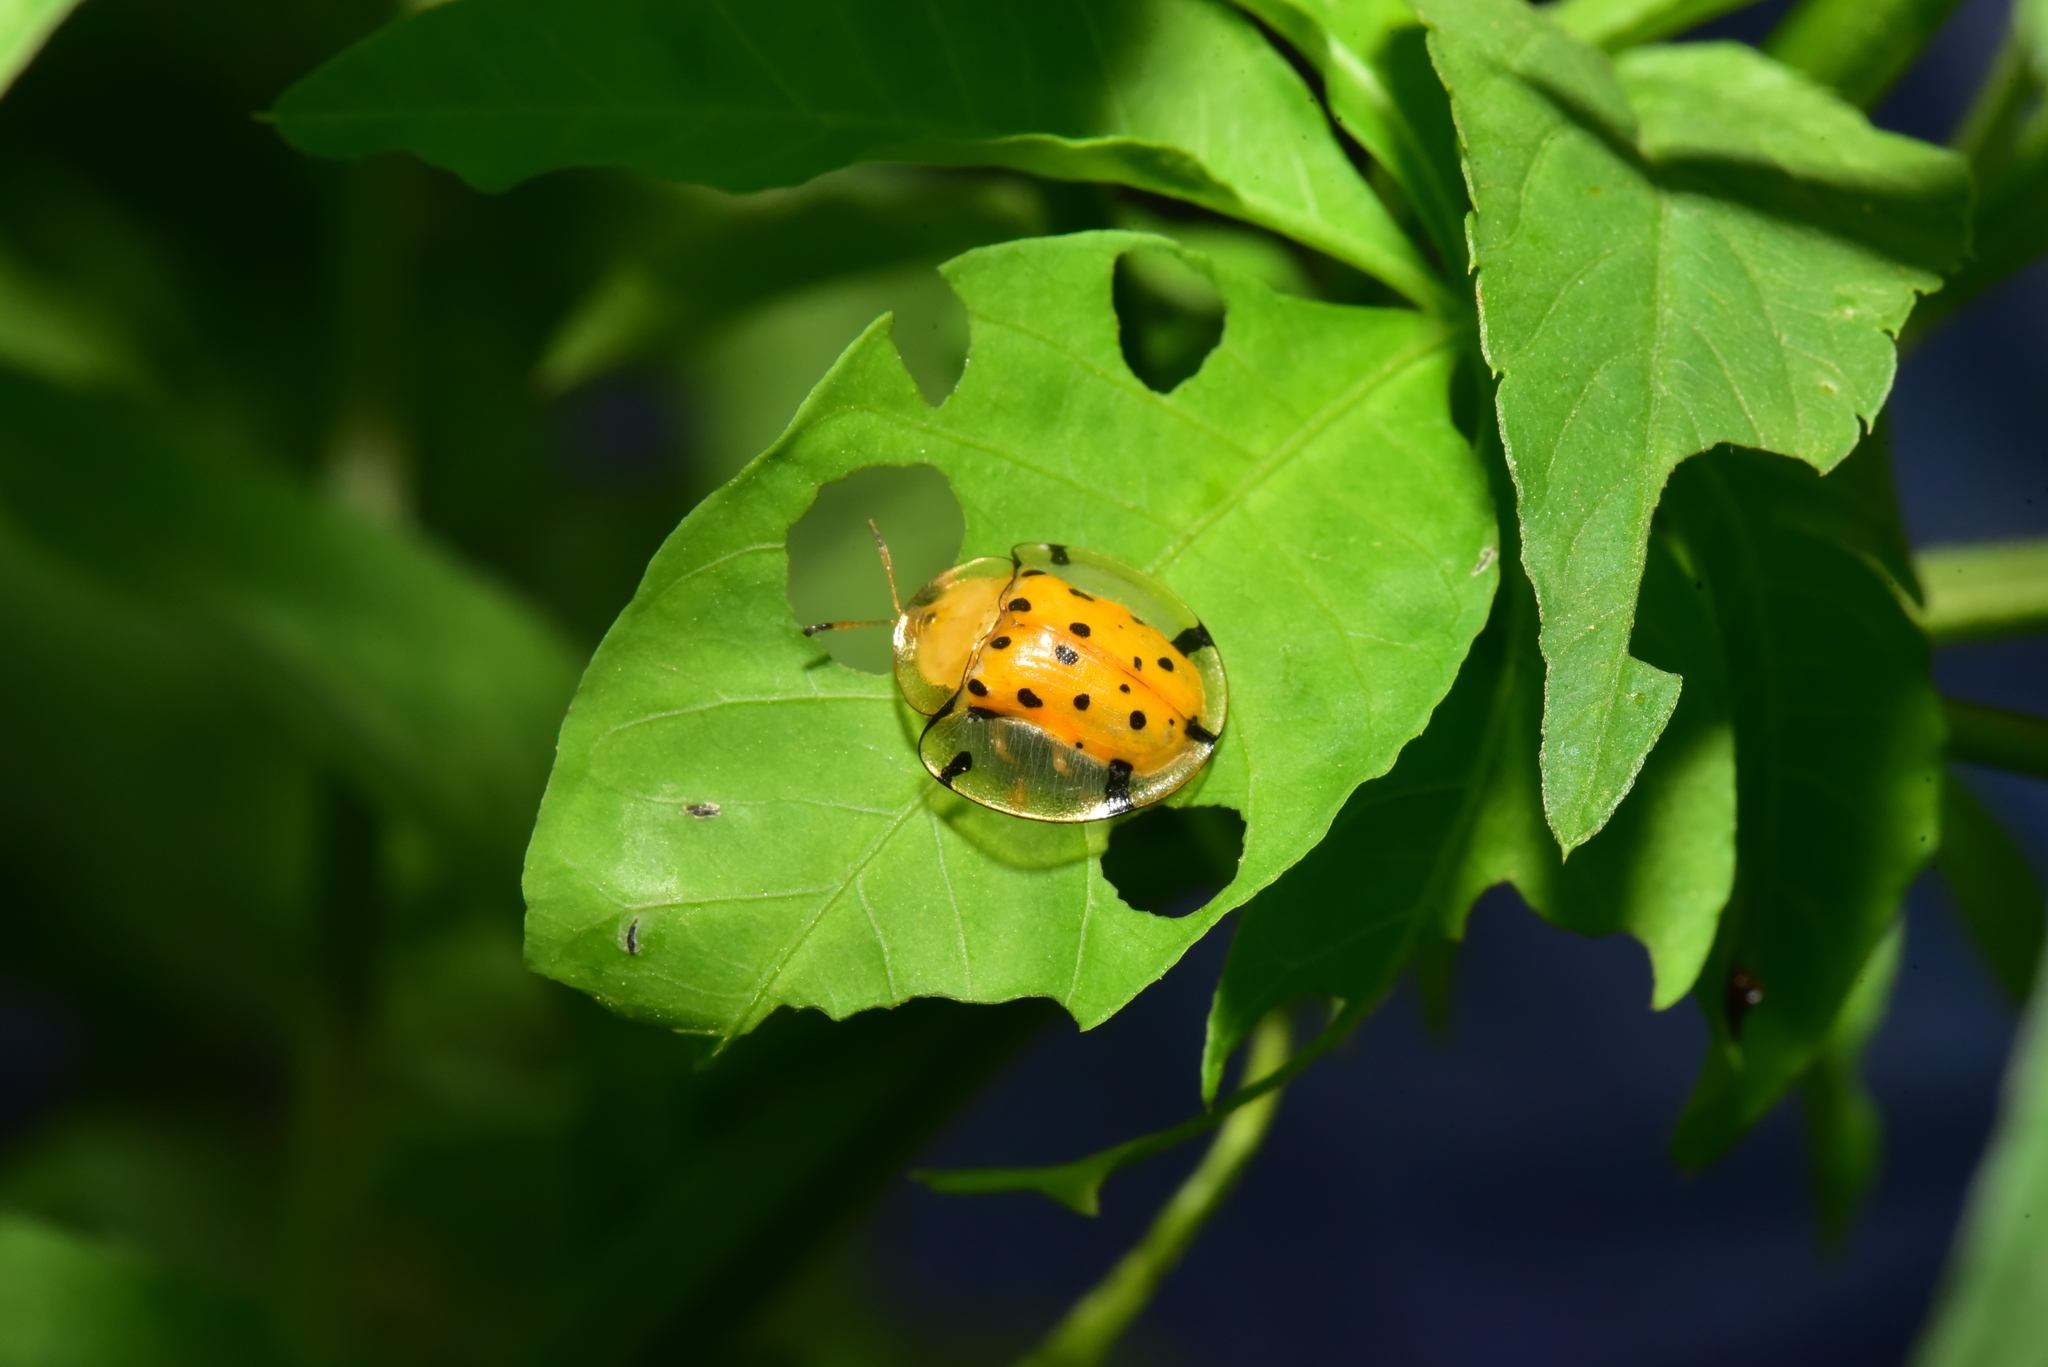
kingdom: Animalia
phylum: Arthropoda
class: Insecta
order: Coleoptera
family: Chrysomelidae
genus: Aspidimorpha
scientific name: Aspidimorpha miliaris
